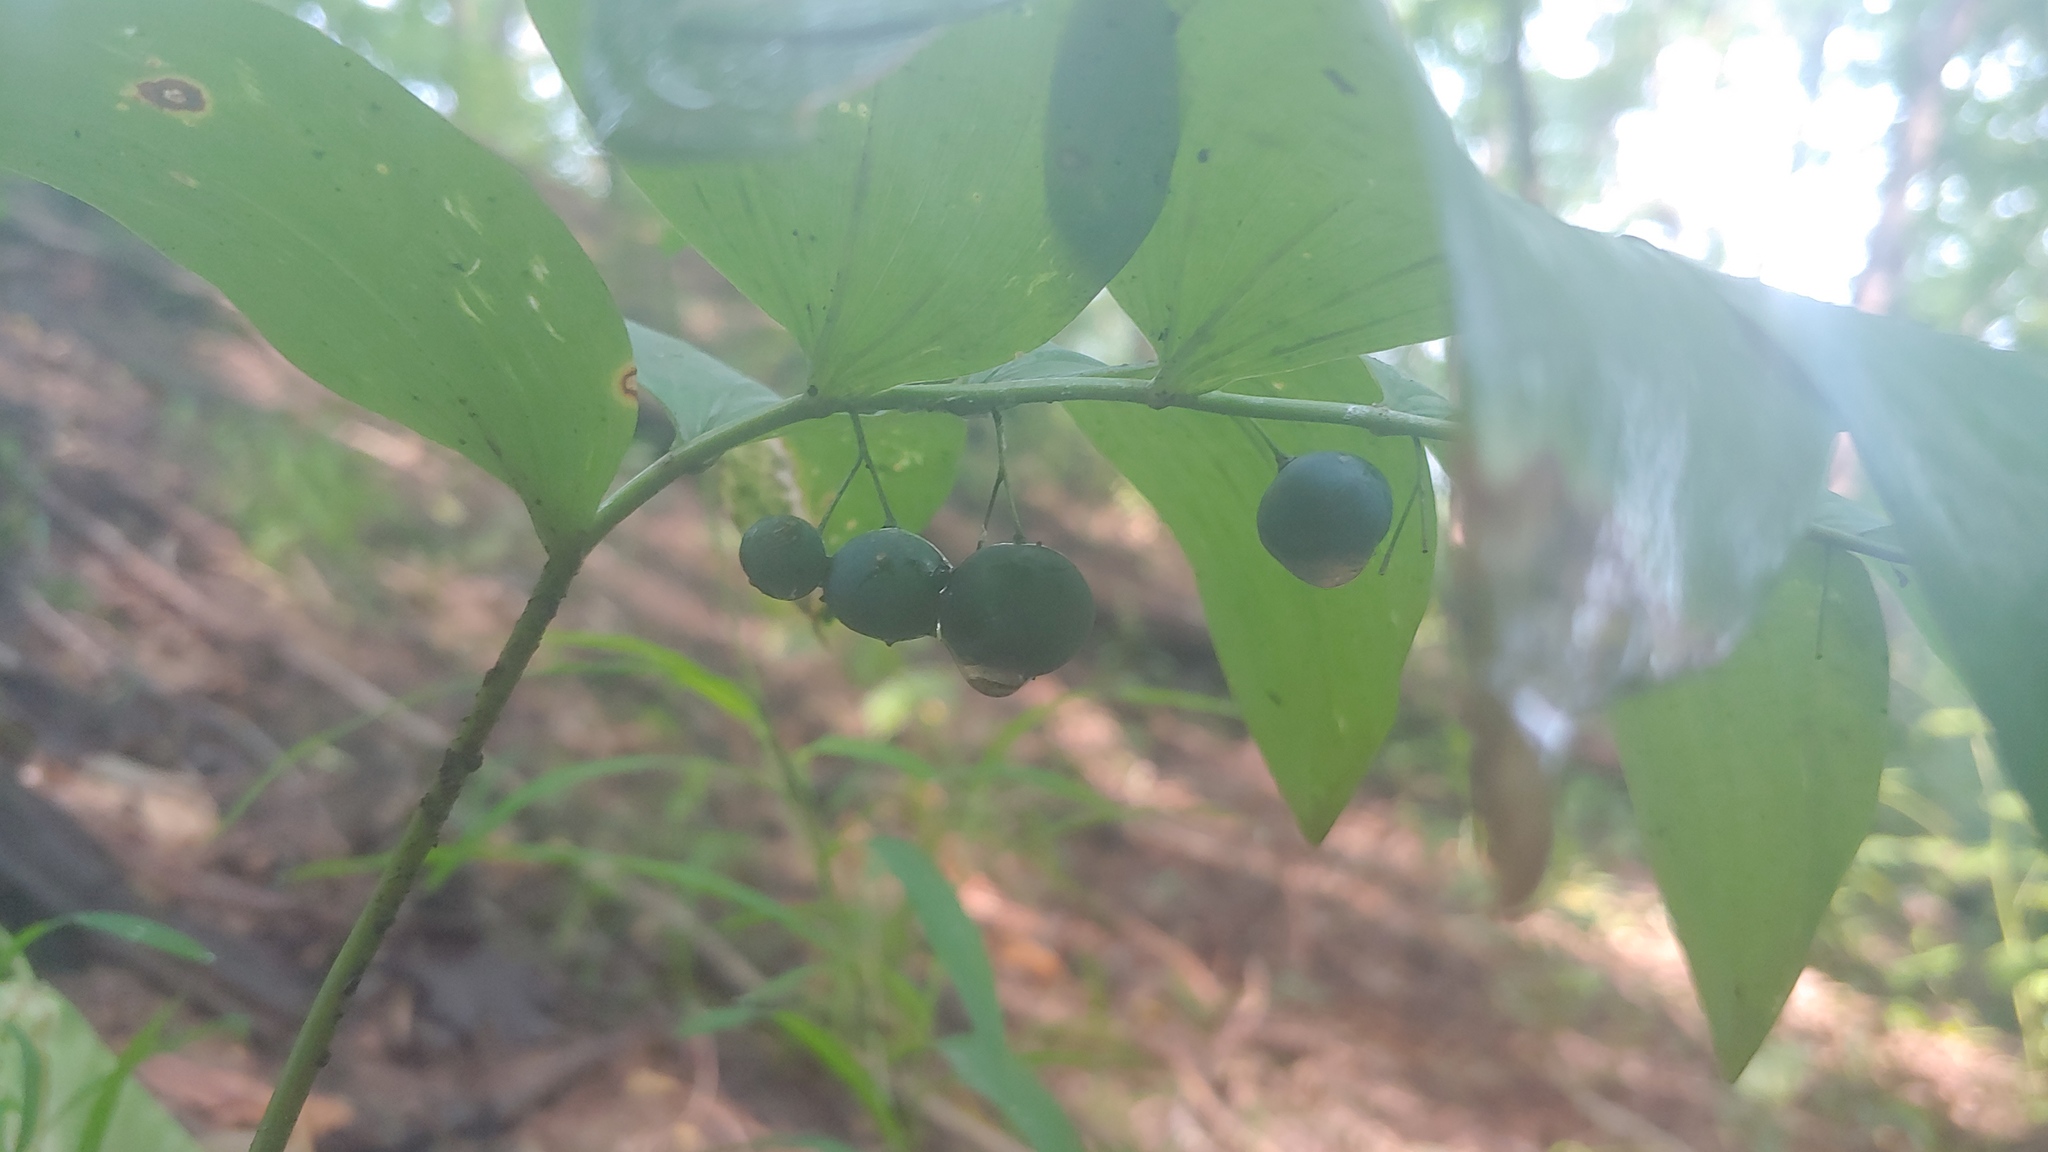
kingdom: Plantae
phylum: Tracheophyta
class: Liliopsida
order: Asparagales
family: Asparagaceae
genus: Polygonatum
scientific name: Polygonatum pubescens
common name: Downy solomon's seal
